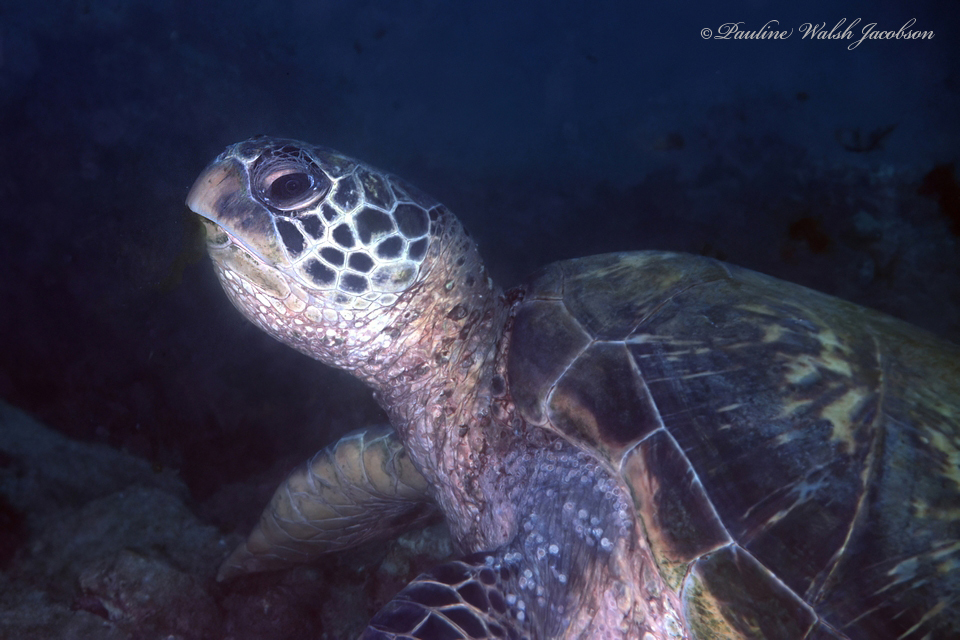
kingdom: Animalia
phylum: Chordata
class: Testudines
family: Cheloniidae
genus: Chelonia
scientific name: Chelonia mydas
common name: Green turtle
